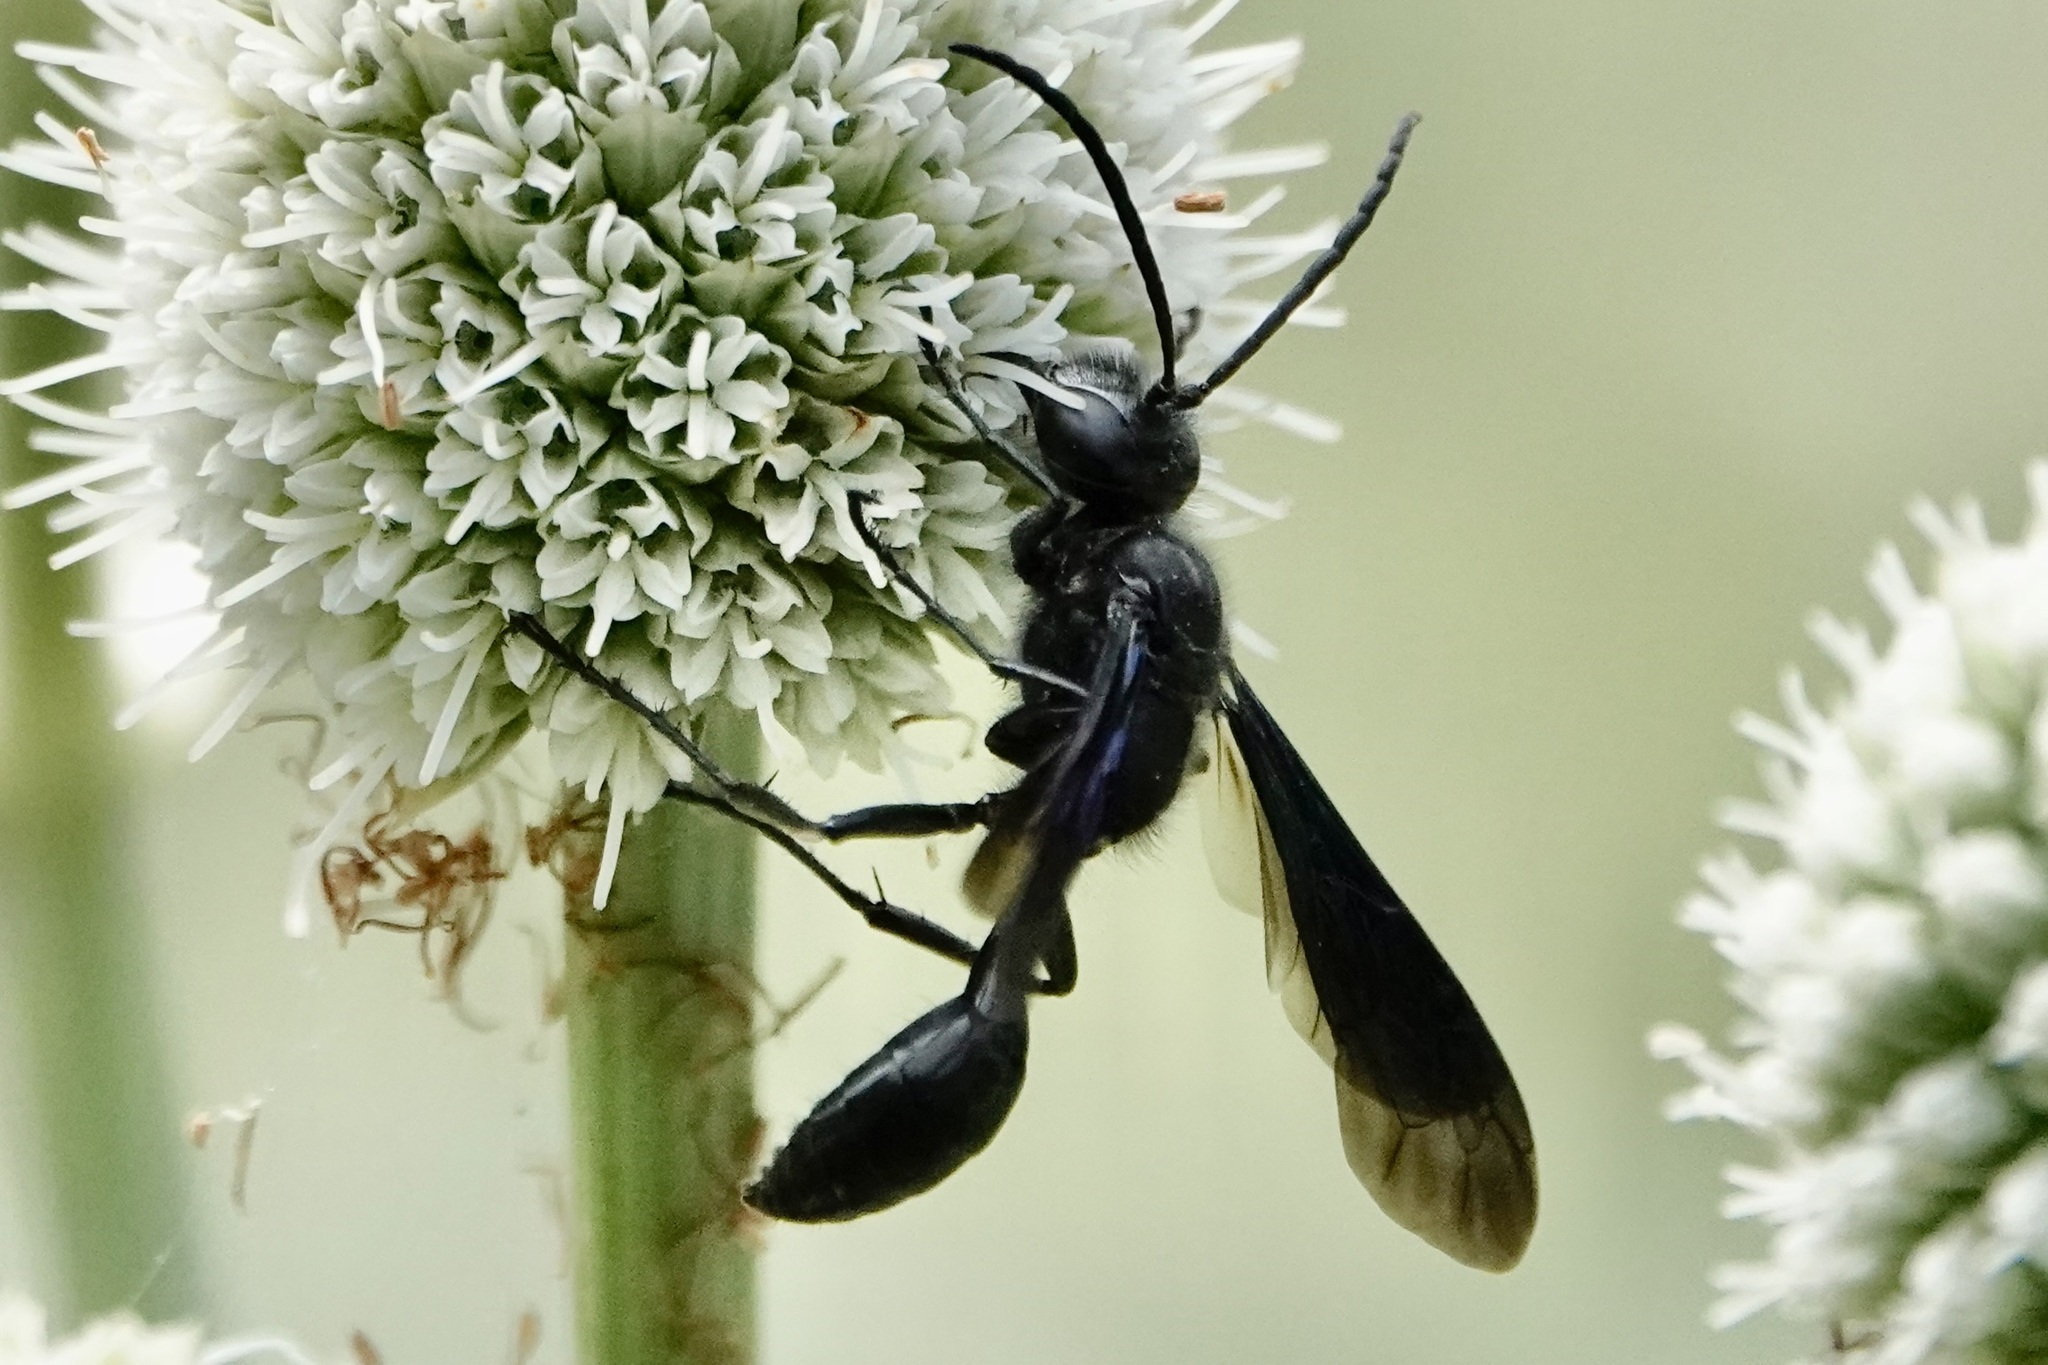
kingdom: Animalia
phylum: Arthropoda
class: Insecta
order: Hymenoptera
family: Sphecidae
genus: Isodontia
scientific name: Isodontia philadelphica
